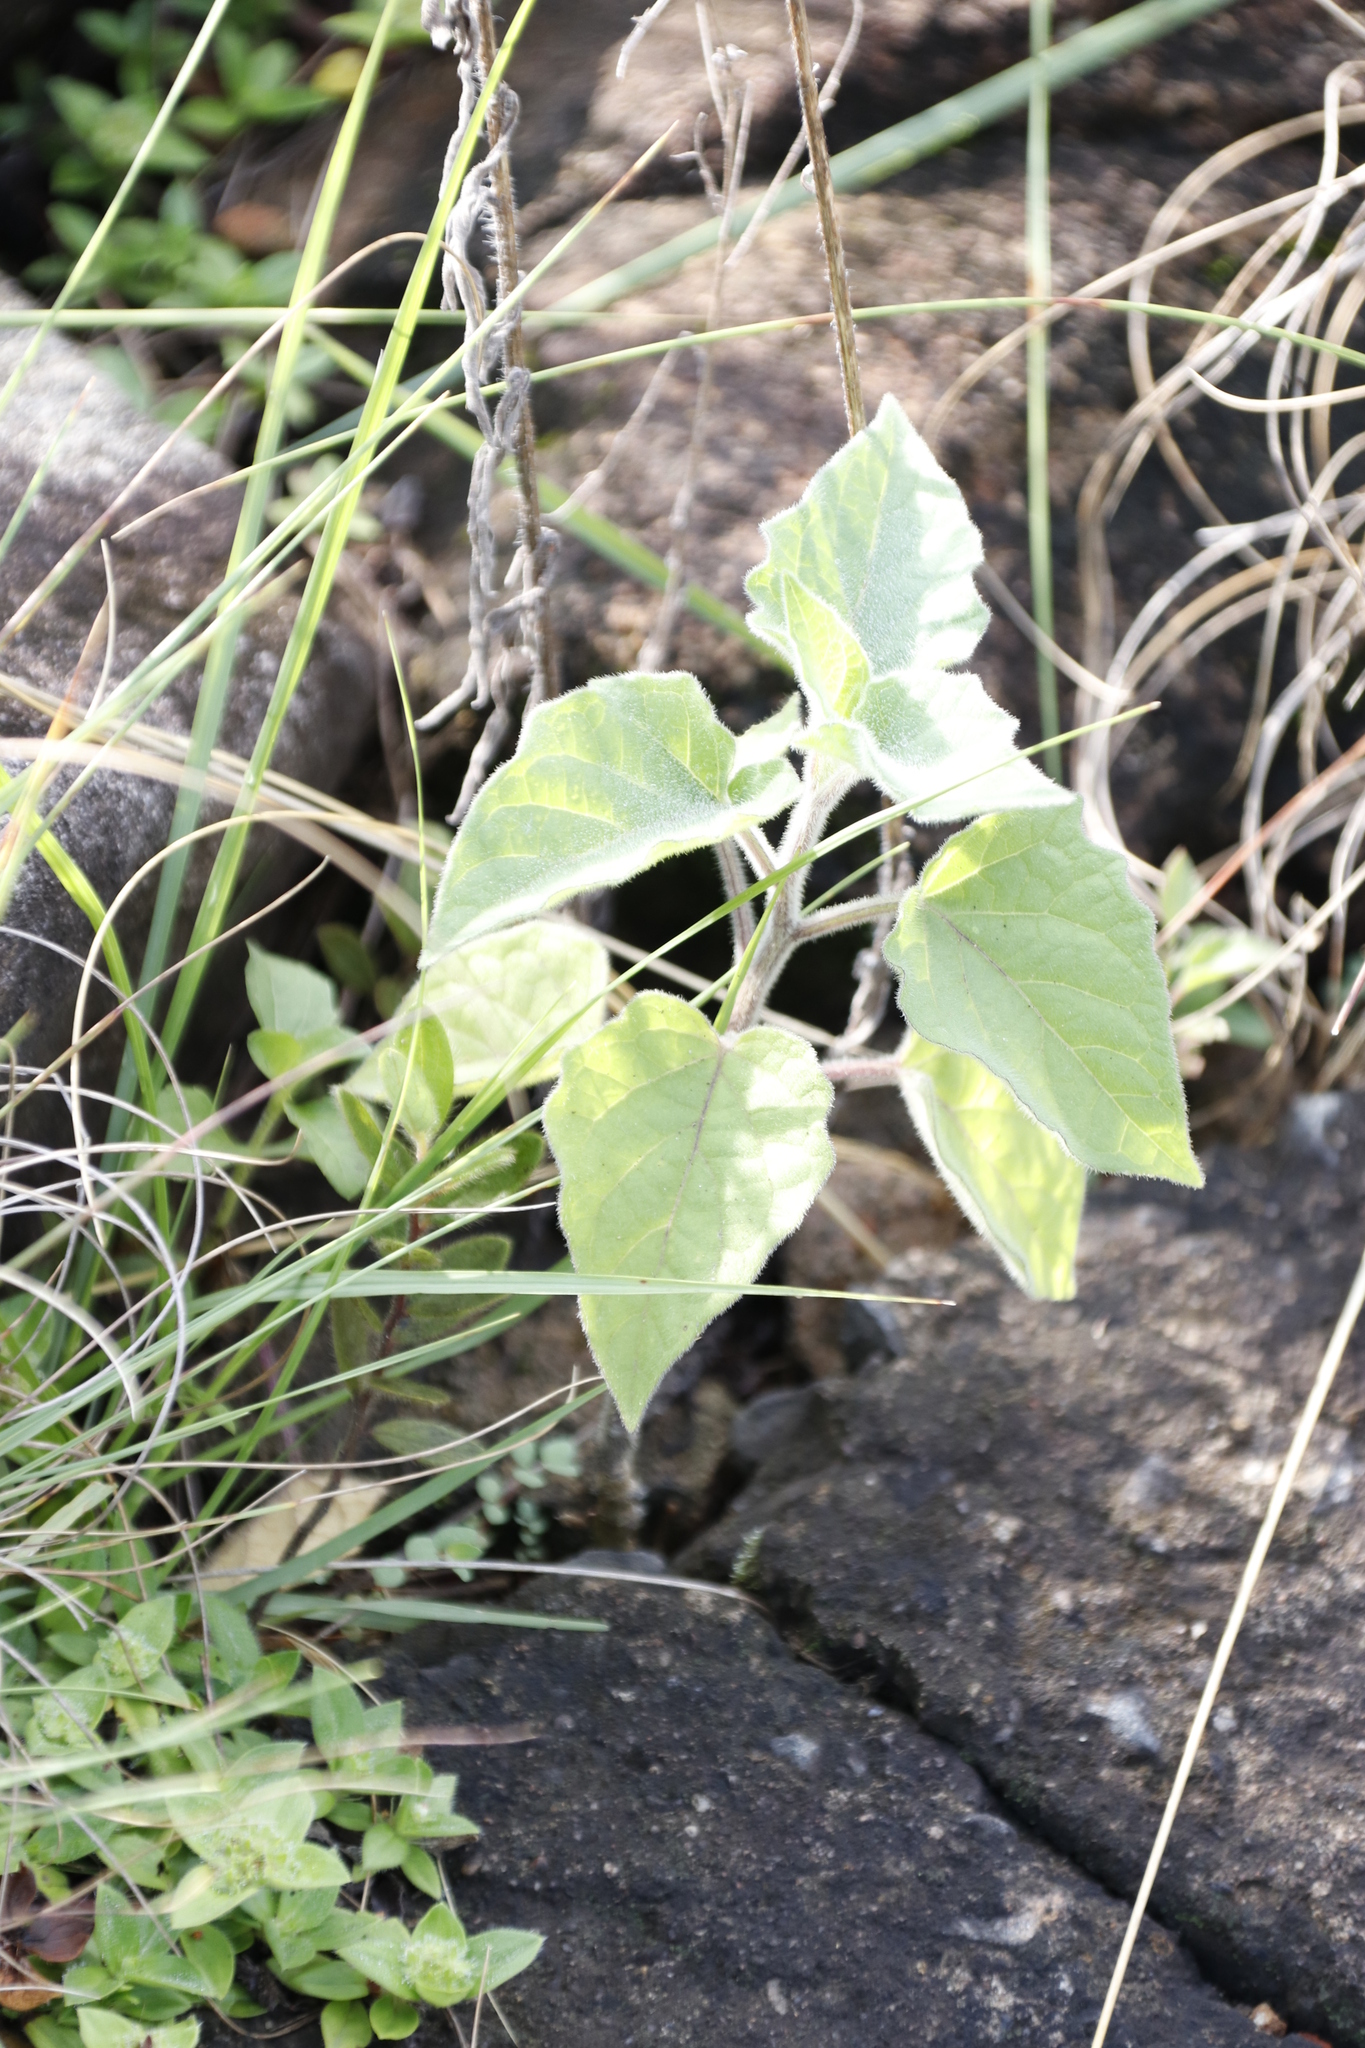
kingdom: Plantae
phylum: Tracheophyta
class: Magnoliopsida
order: Solanales
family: Solanaceae
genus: Physalis
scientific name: Physalis peruviana
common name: Cape-gooseberry
